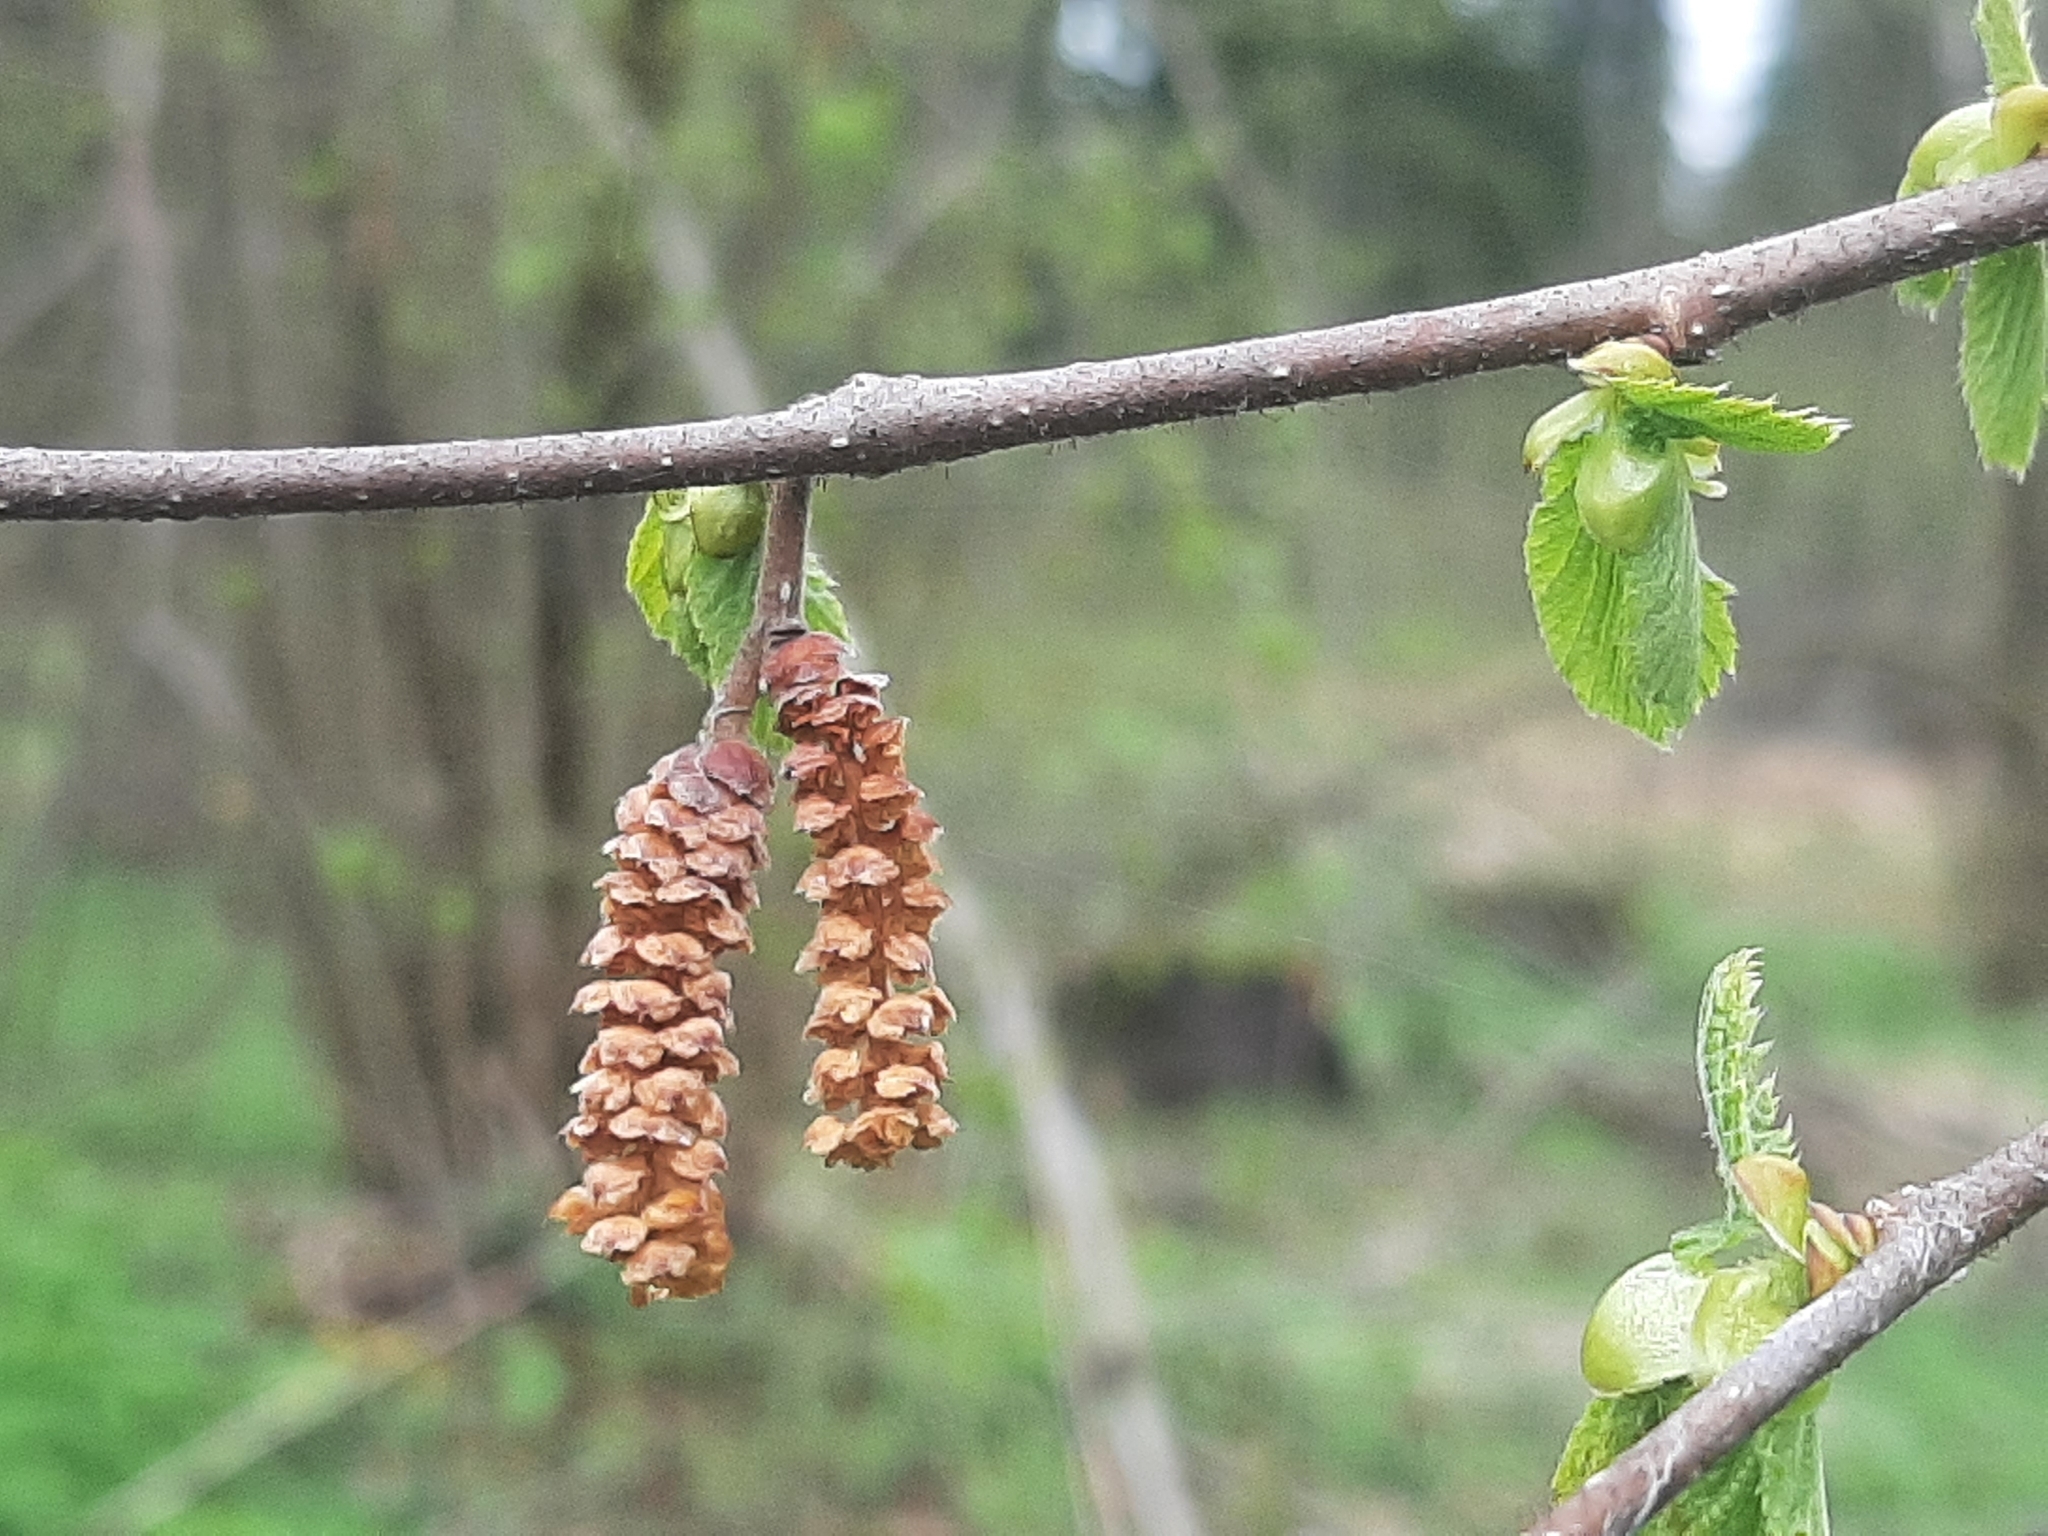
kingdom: Plantae
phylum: Tracheophyta
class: Magnoliopsida
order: Fagales
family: Betulaceae
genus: Corylus
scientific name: Corylus avellana
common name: European hazel
